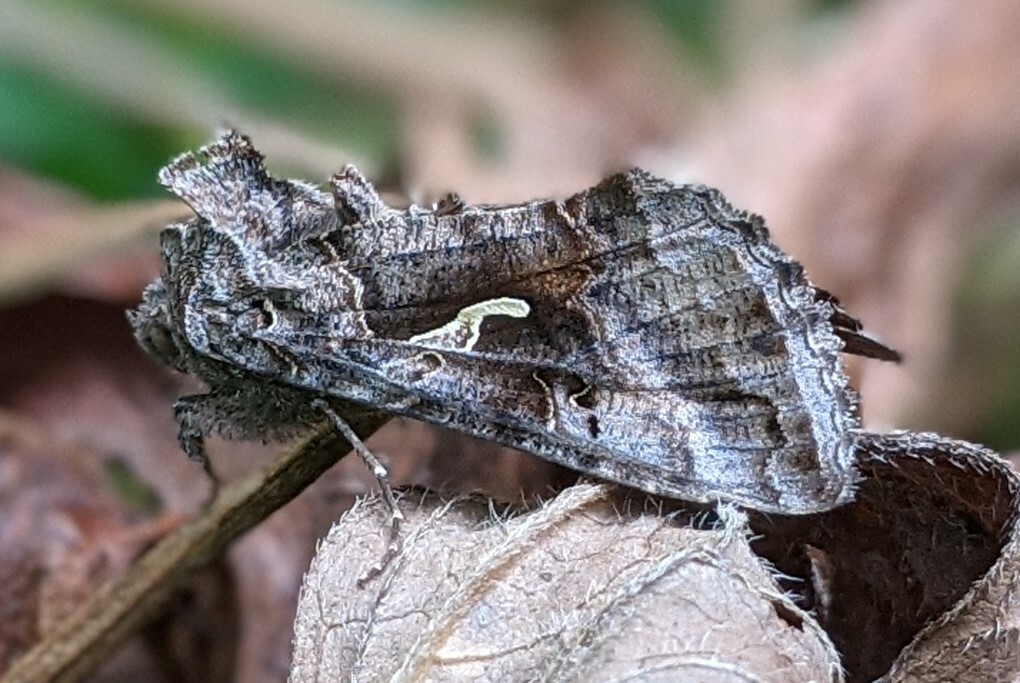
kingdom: Animalia
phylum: Arthropoda
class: Insecta
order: Lepidoptera
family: Noctuidae
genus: Autographa
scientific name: Autographa gamma
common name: Silver y
